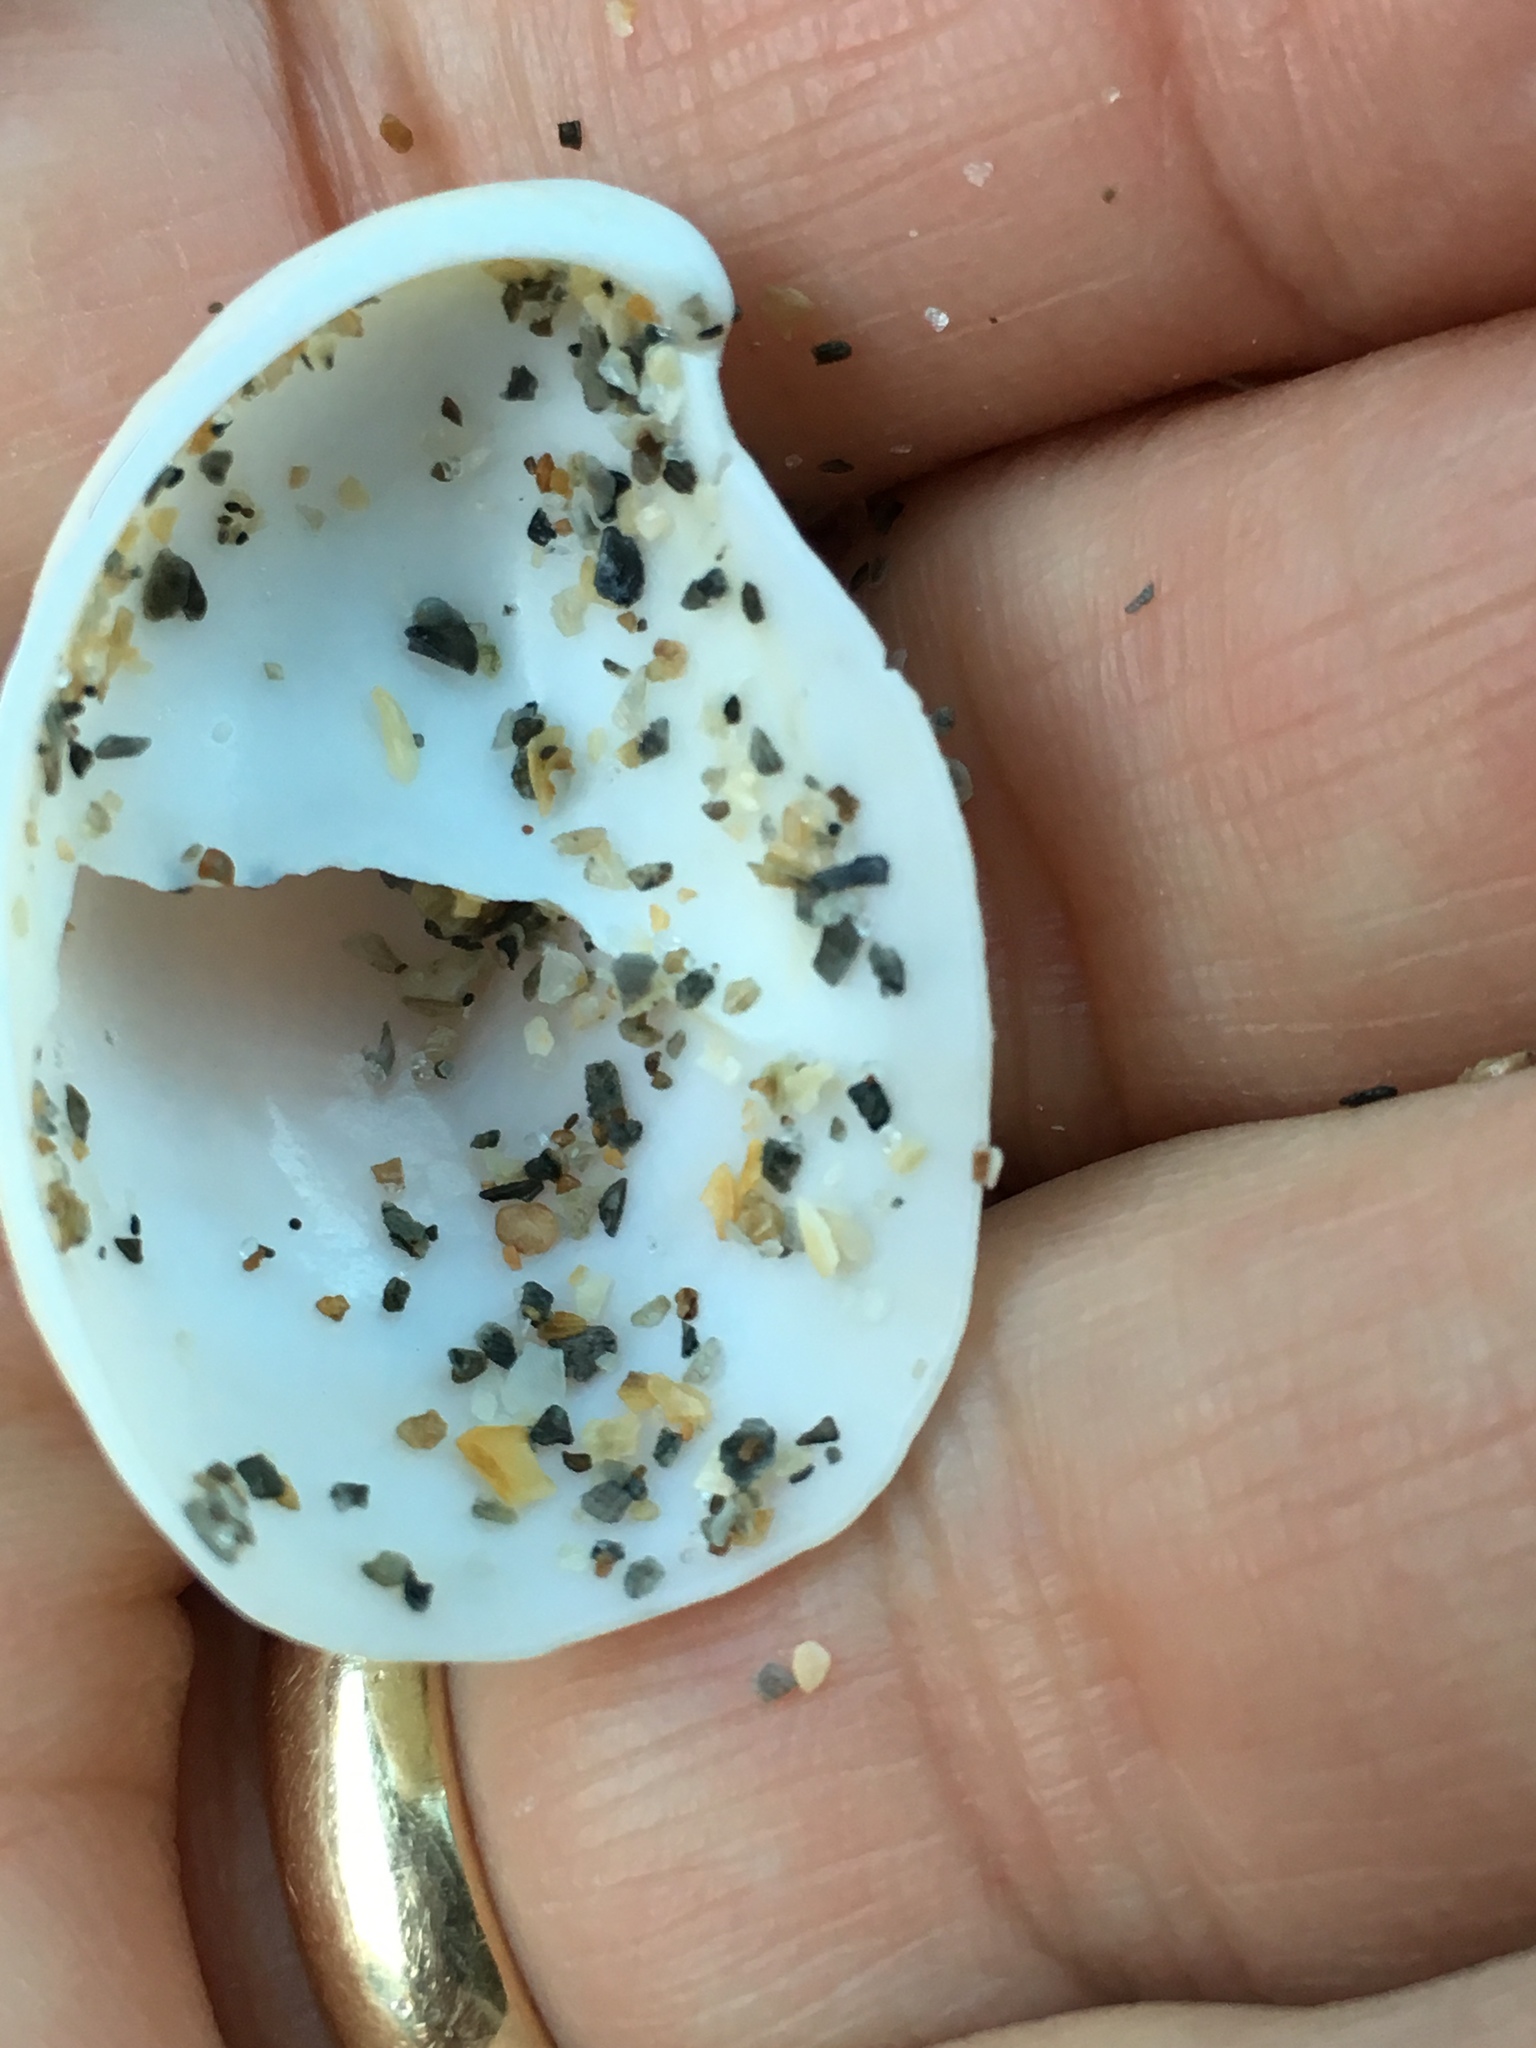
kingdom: Animalia
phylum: Mollusca
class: Gastropoda
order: Littorinimorpha
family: Calyptraeidae
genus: Crepidula
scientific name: Crepidula fornicata
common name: Slipper limpet
